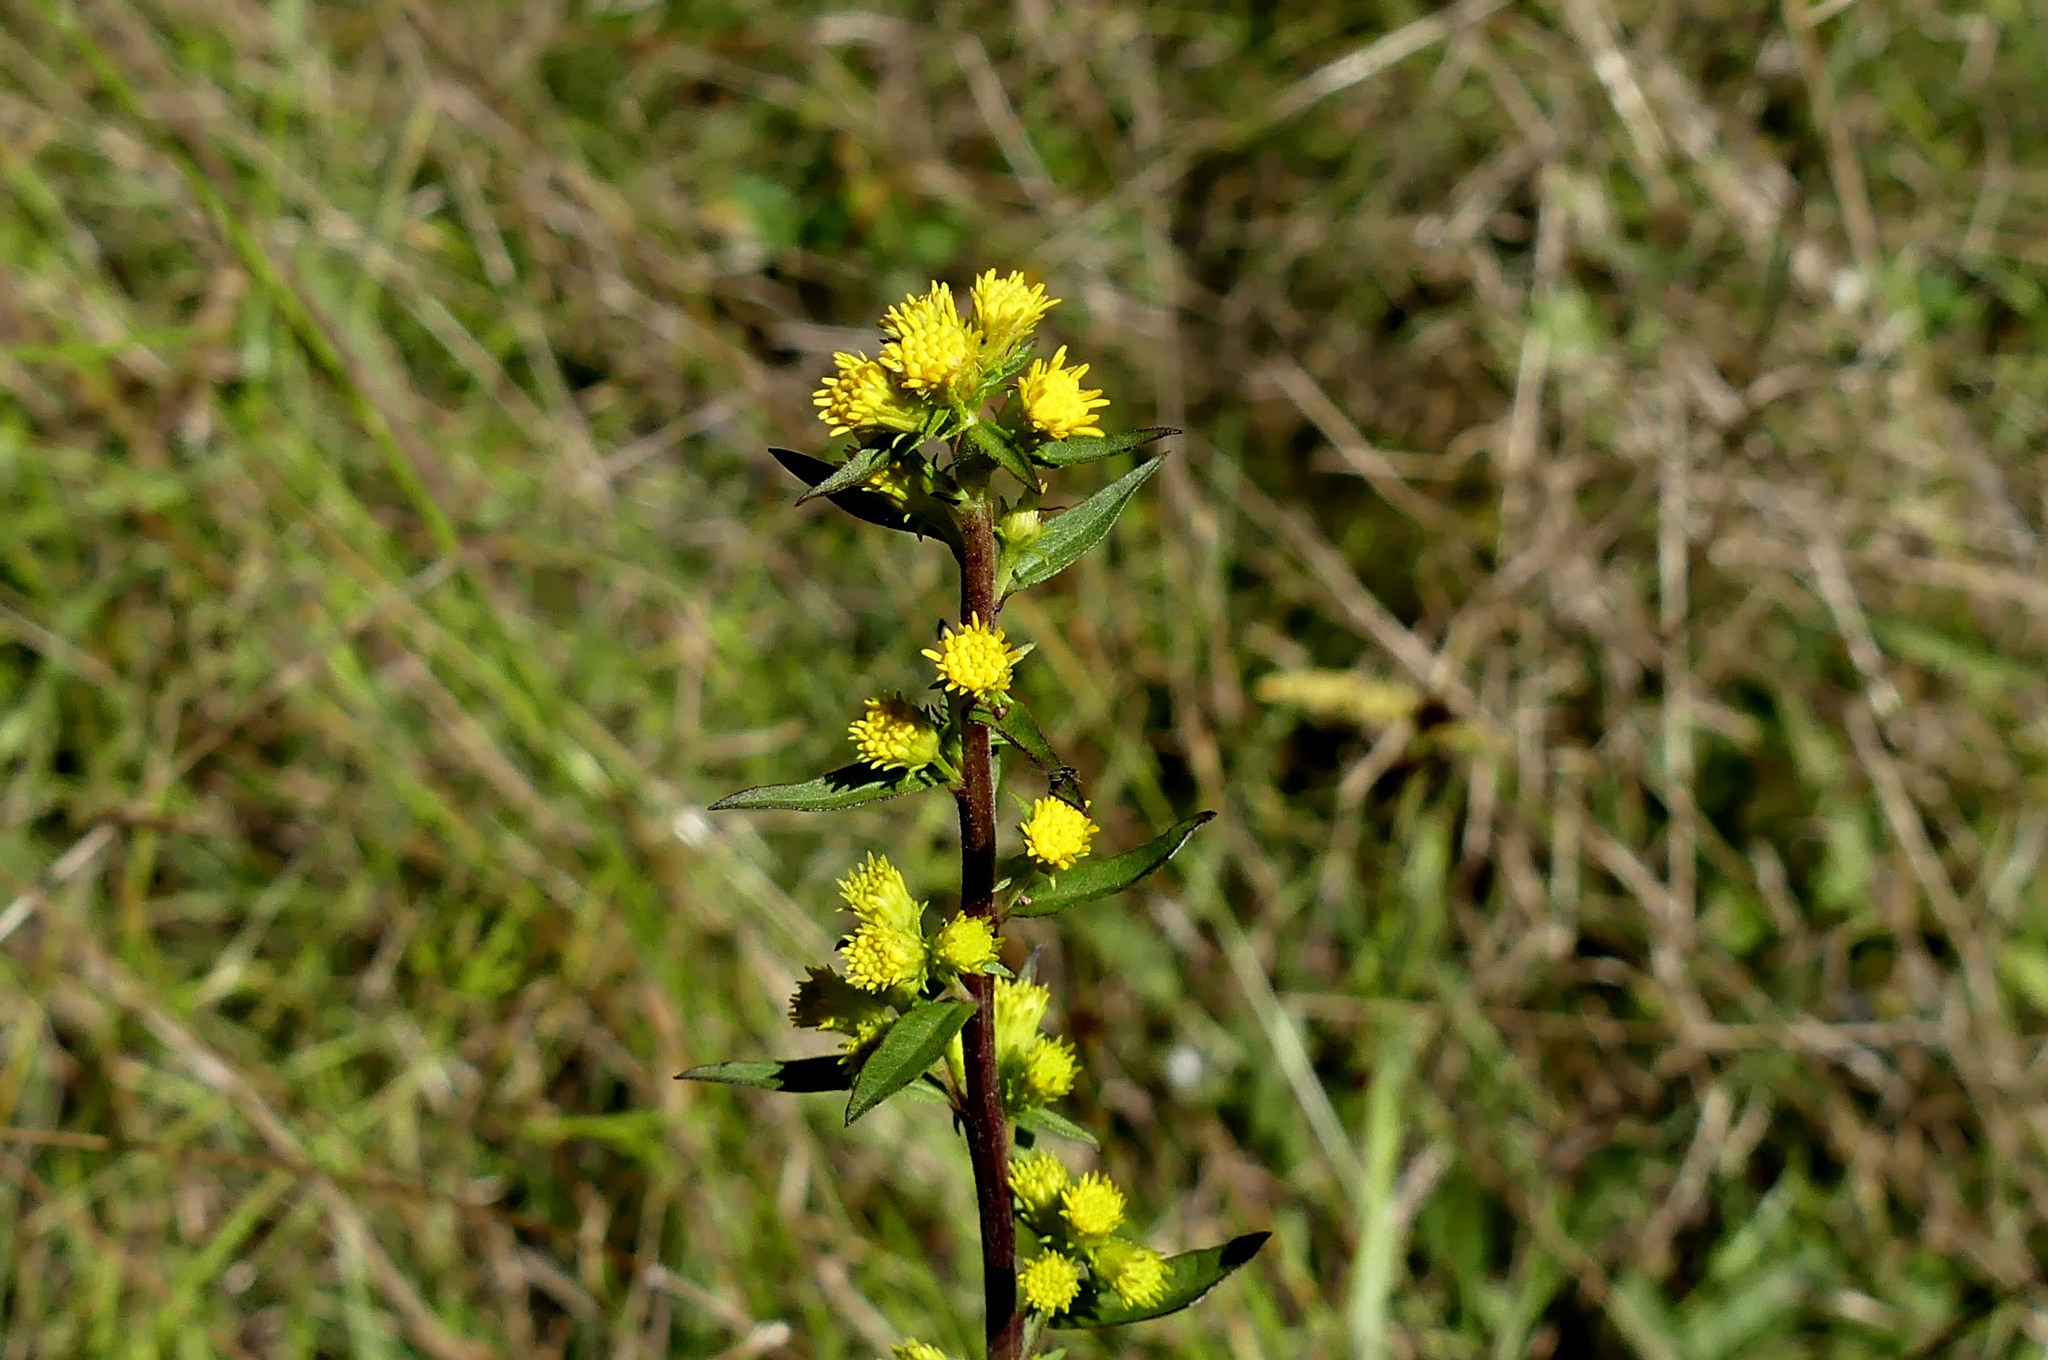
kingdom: Plantae
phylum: Tracheophyta
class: Magnoliopsida
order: Asterales
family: Asteraceae
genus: Solidago
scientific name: Solidago puberula
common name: Downy goldenrod
